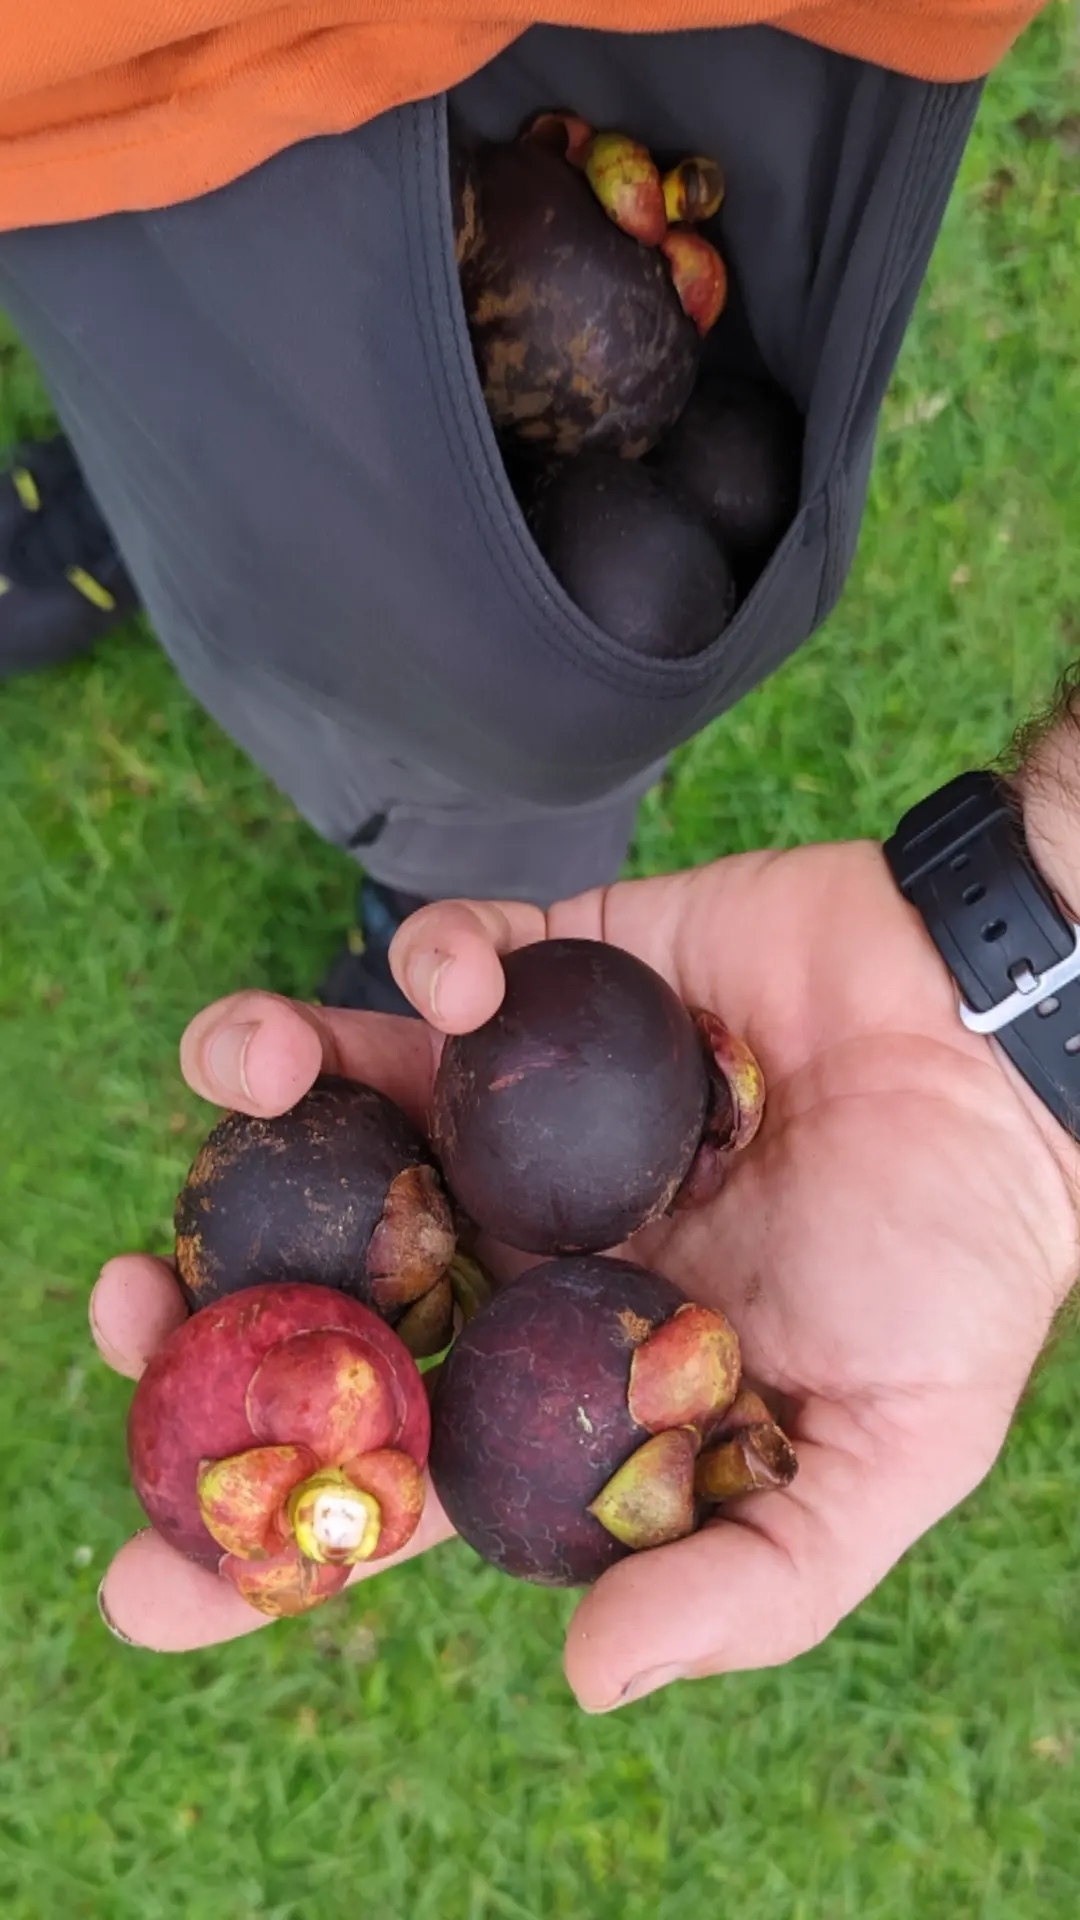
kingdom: Plantae
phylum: Tracheophyta
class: Magnoliopsida
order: Malpighiales
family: Clusiaceae
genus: Garcinia
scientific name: Garcinia mangostana
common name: Mangosteen
